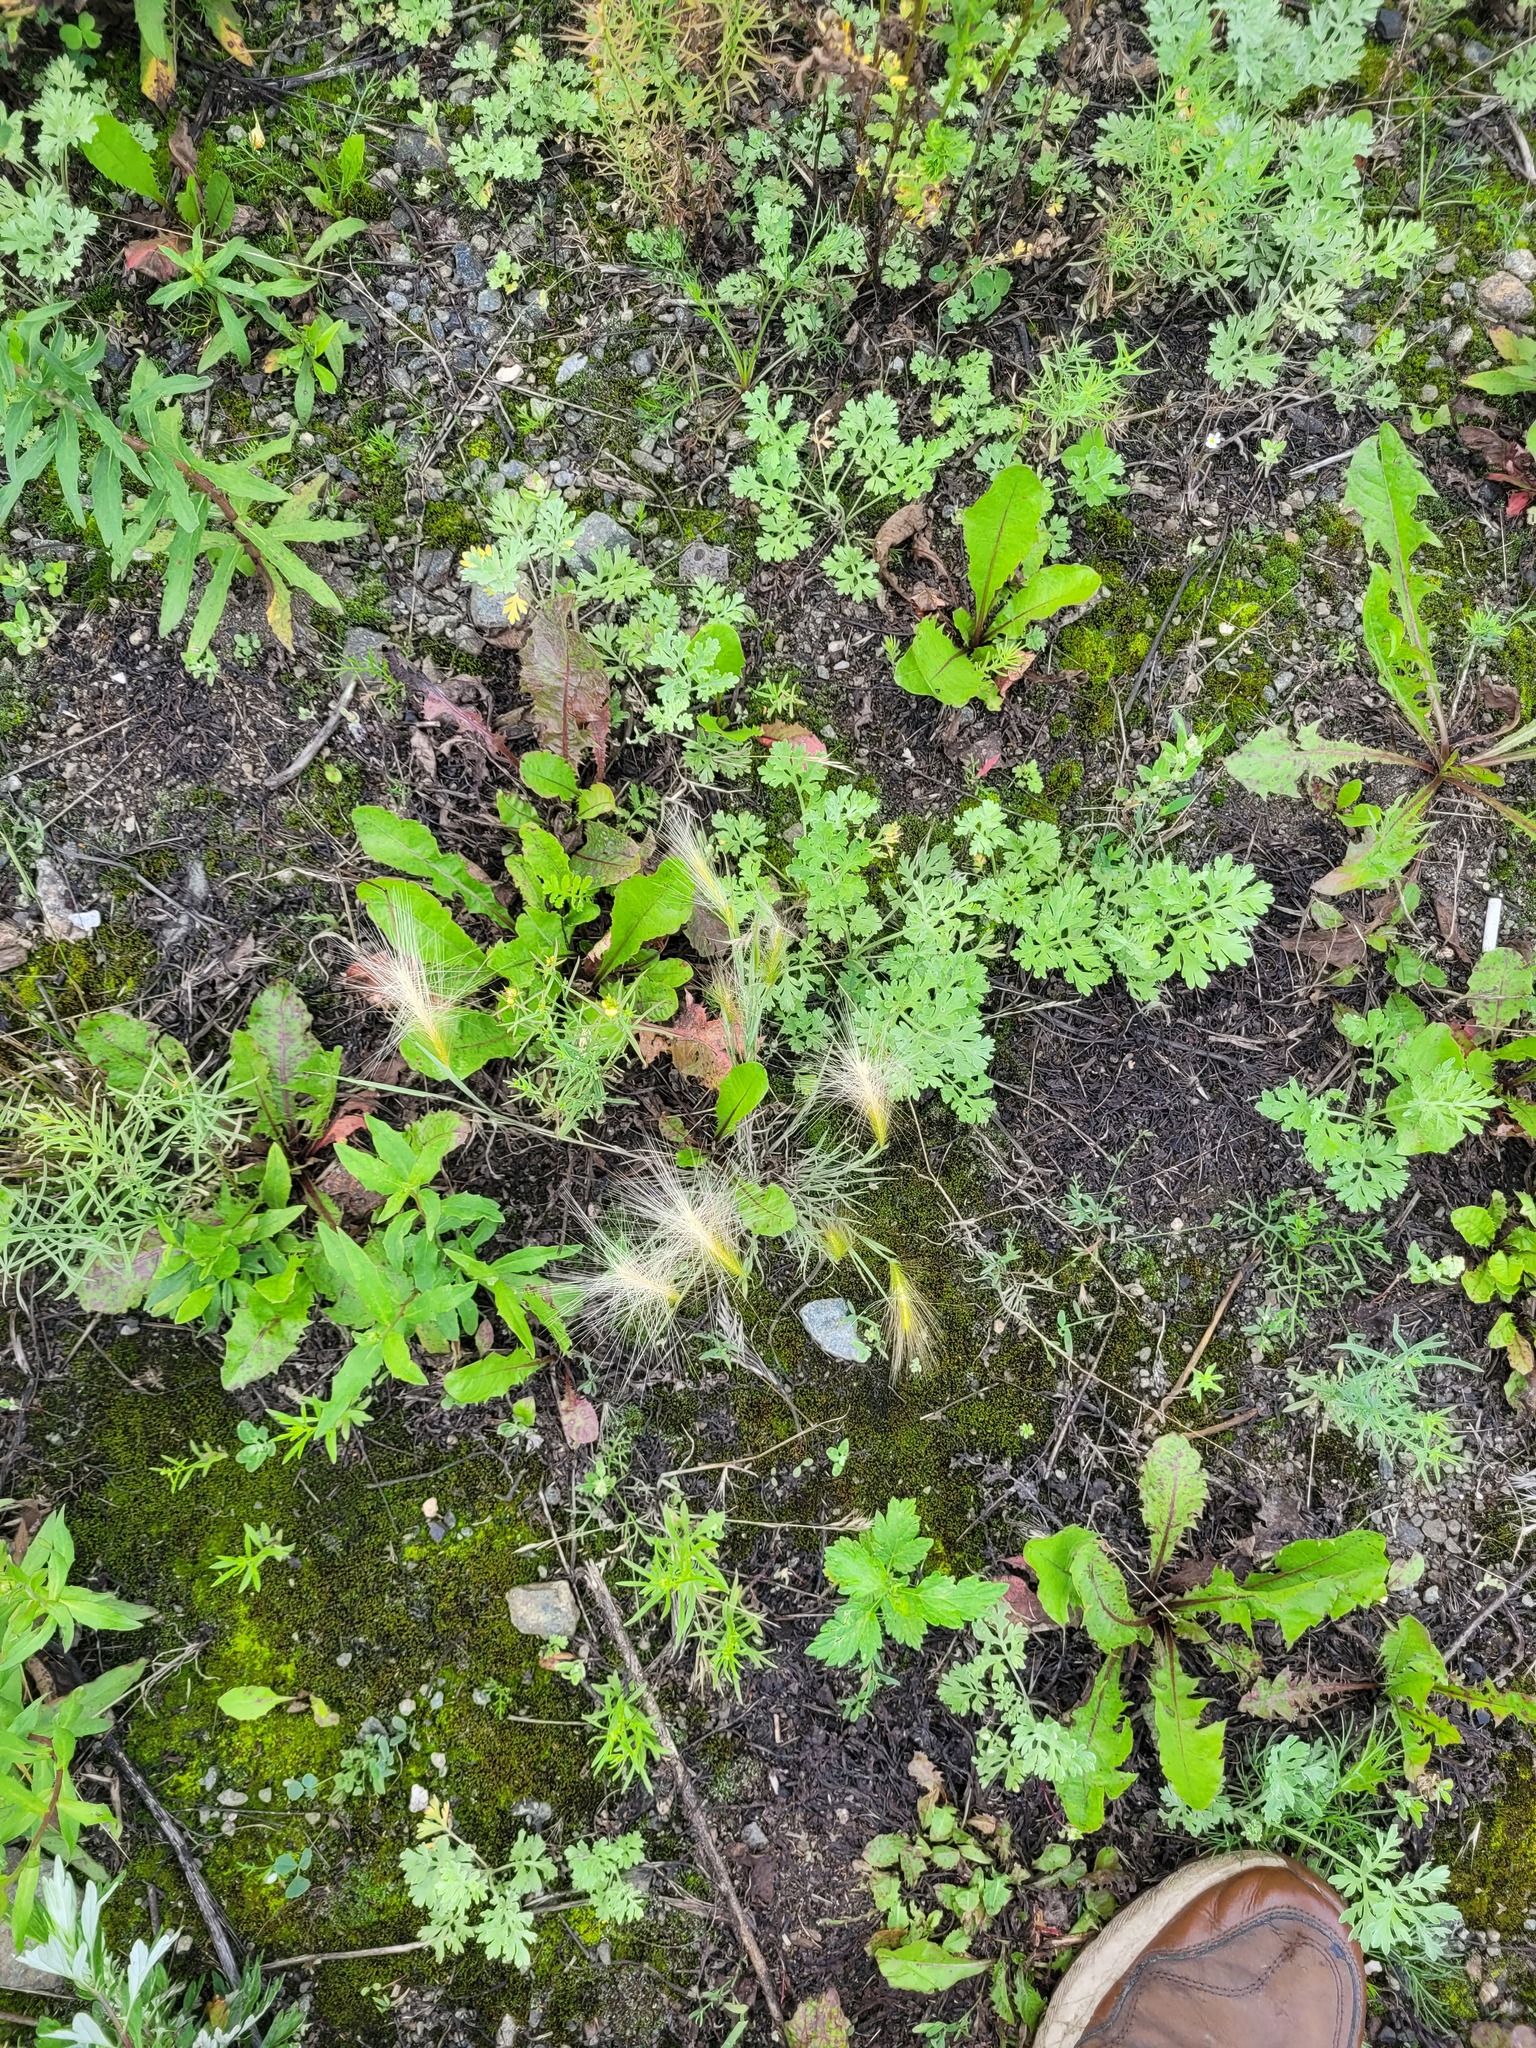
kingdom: Plantae
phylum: Tracheophyta
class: Liliopsida
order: Poales
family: Poaceae
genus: Hordeum
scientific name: Hordeum jubatum
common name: Foxtail barley
